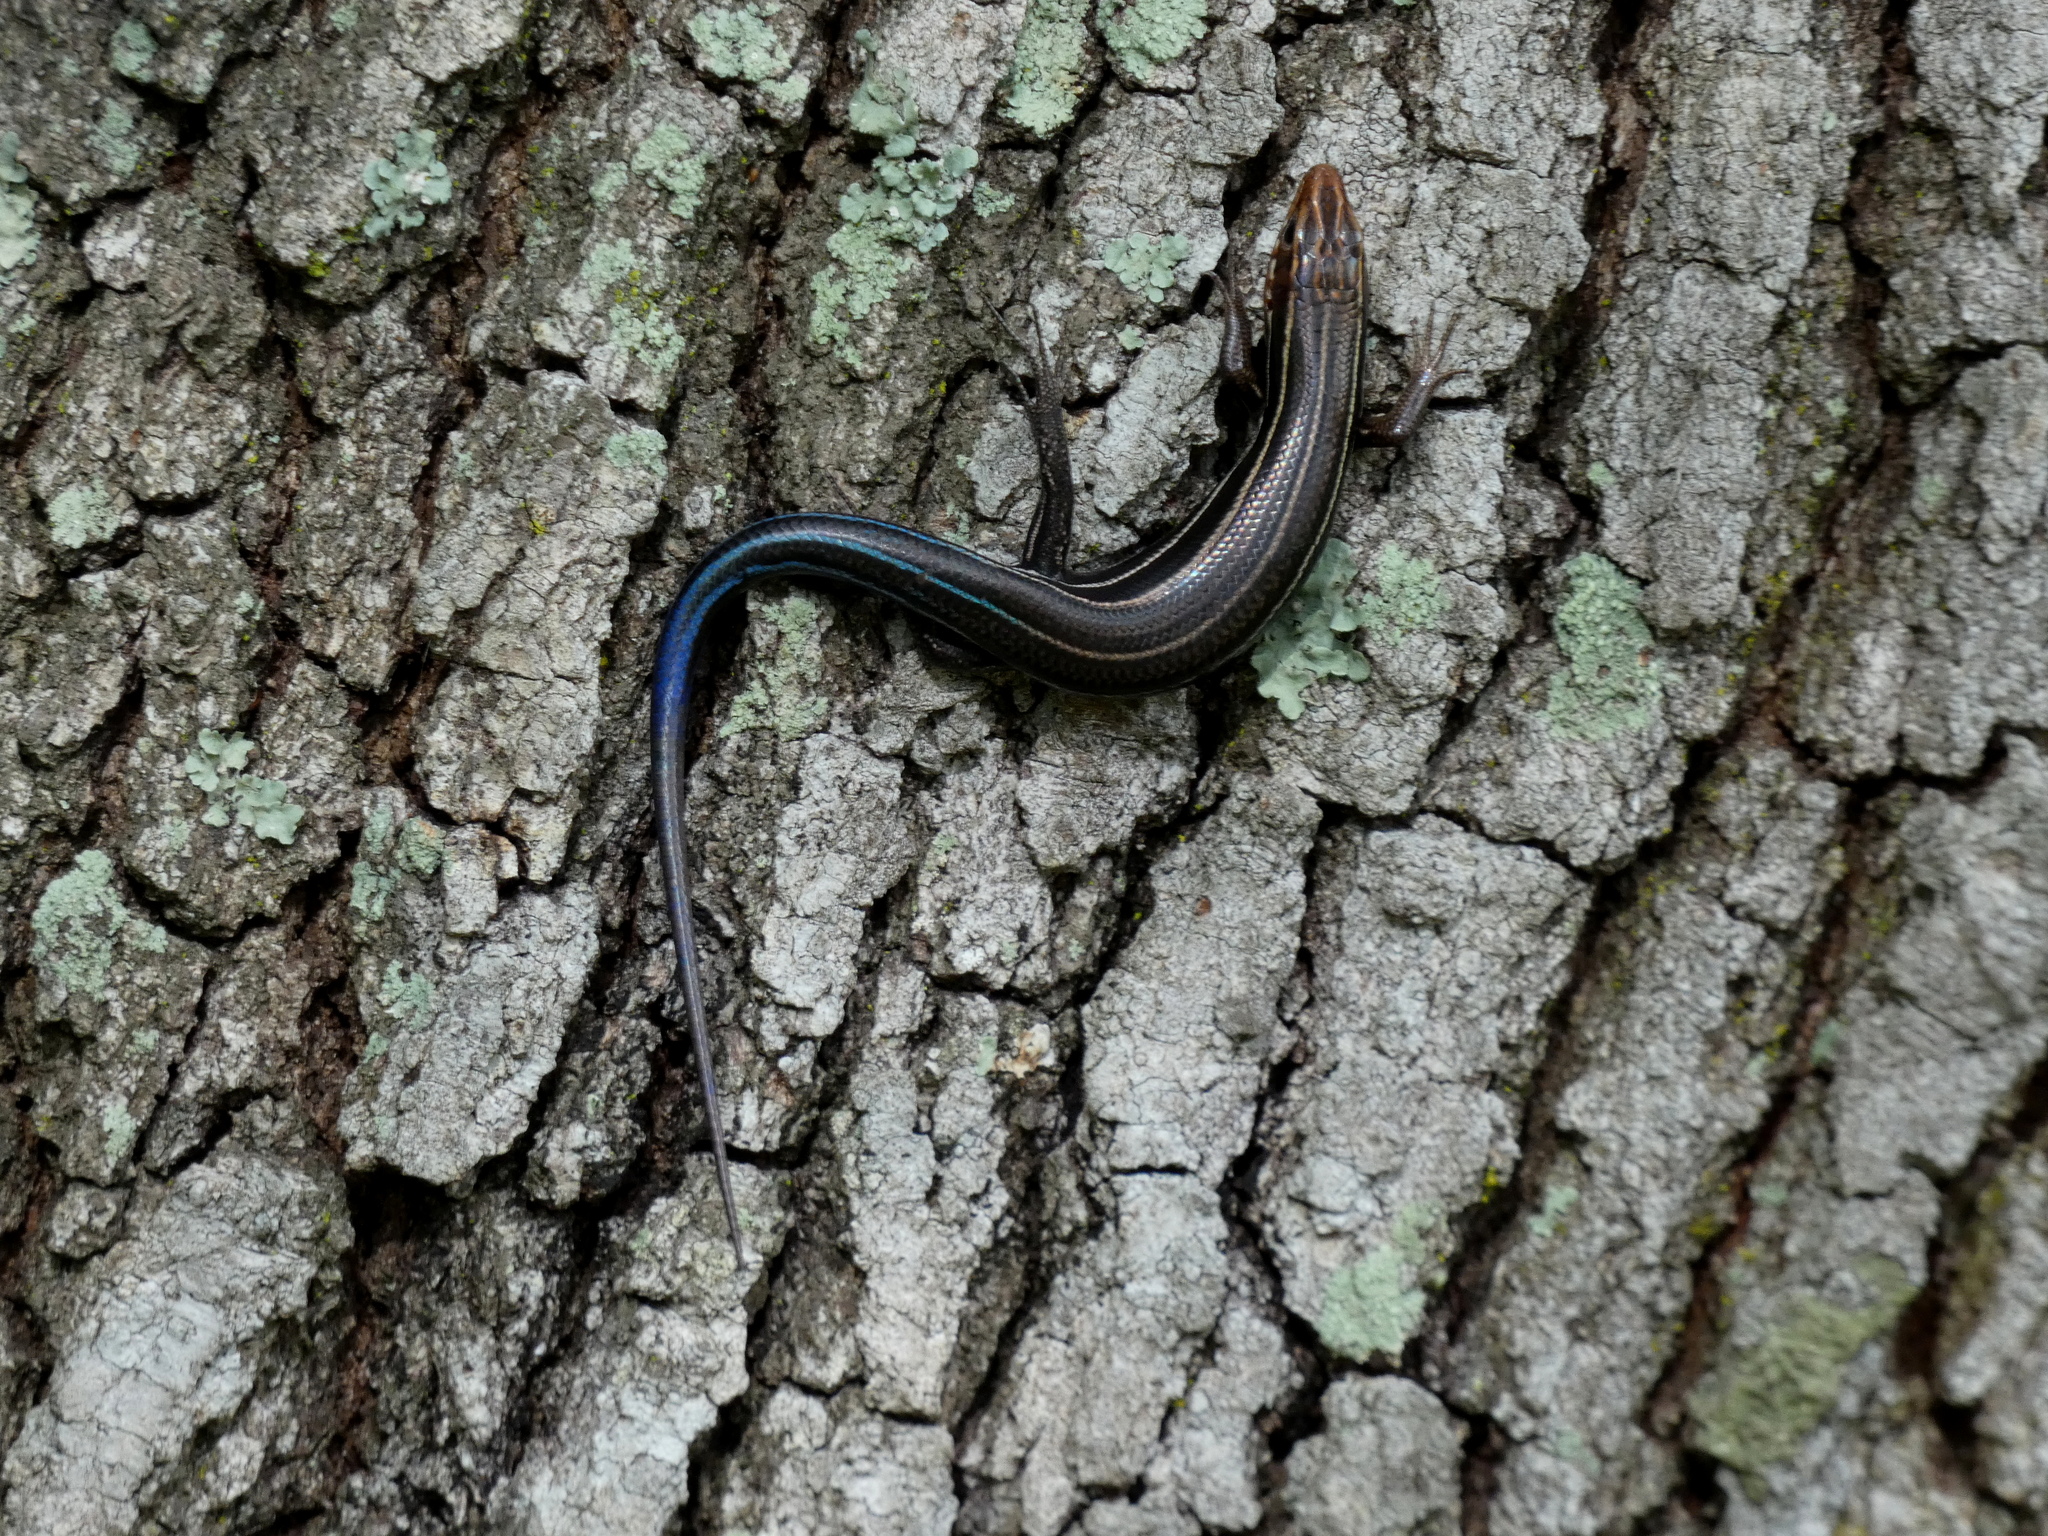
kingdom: Animalia
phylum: Chordata
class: Squamata
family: Scincidae
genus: Plestiodon
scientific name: Plestiodon inexpectatus
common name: Southeastern five-lined skink
